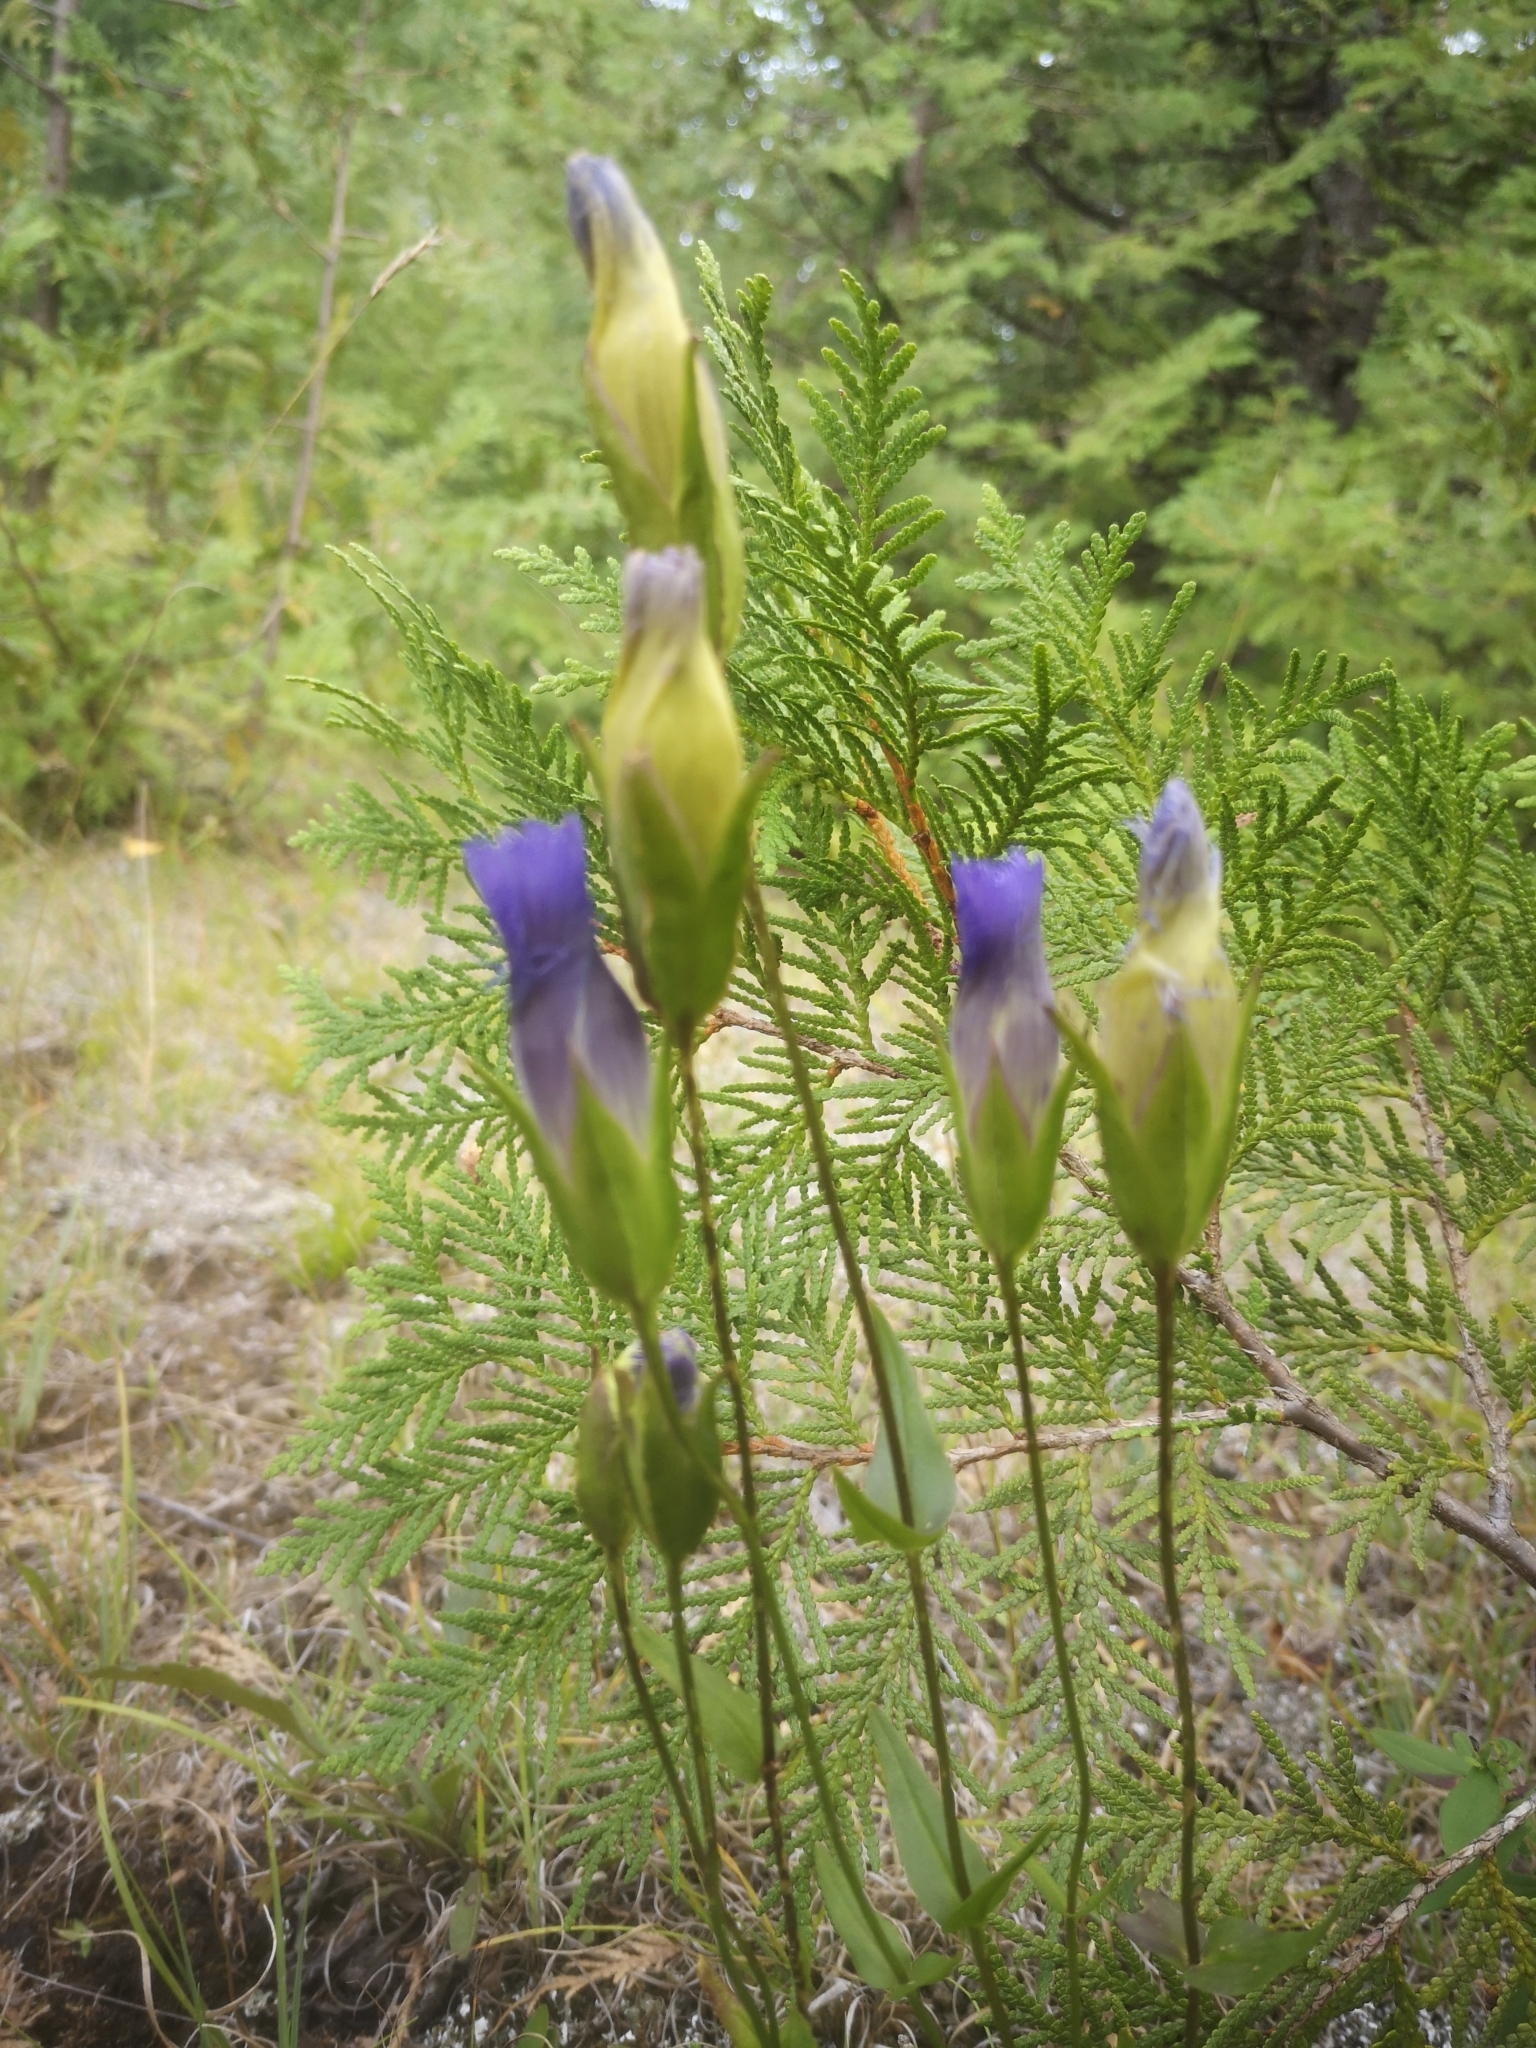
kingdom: Plantae
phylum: Tracheophyta
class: Magnoliopsida
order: Gentianales
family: Gentianaceae
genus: Gentianopsis
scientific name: Gentianopsis crinita
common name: Fringed-gentian
